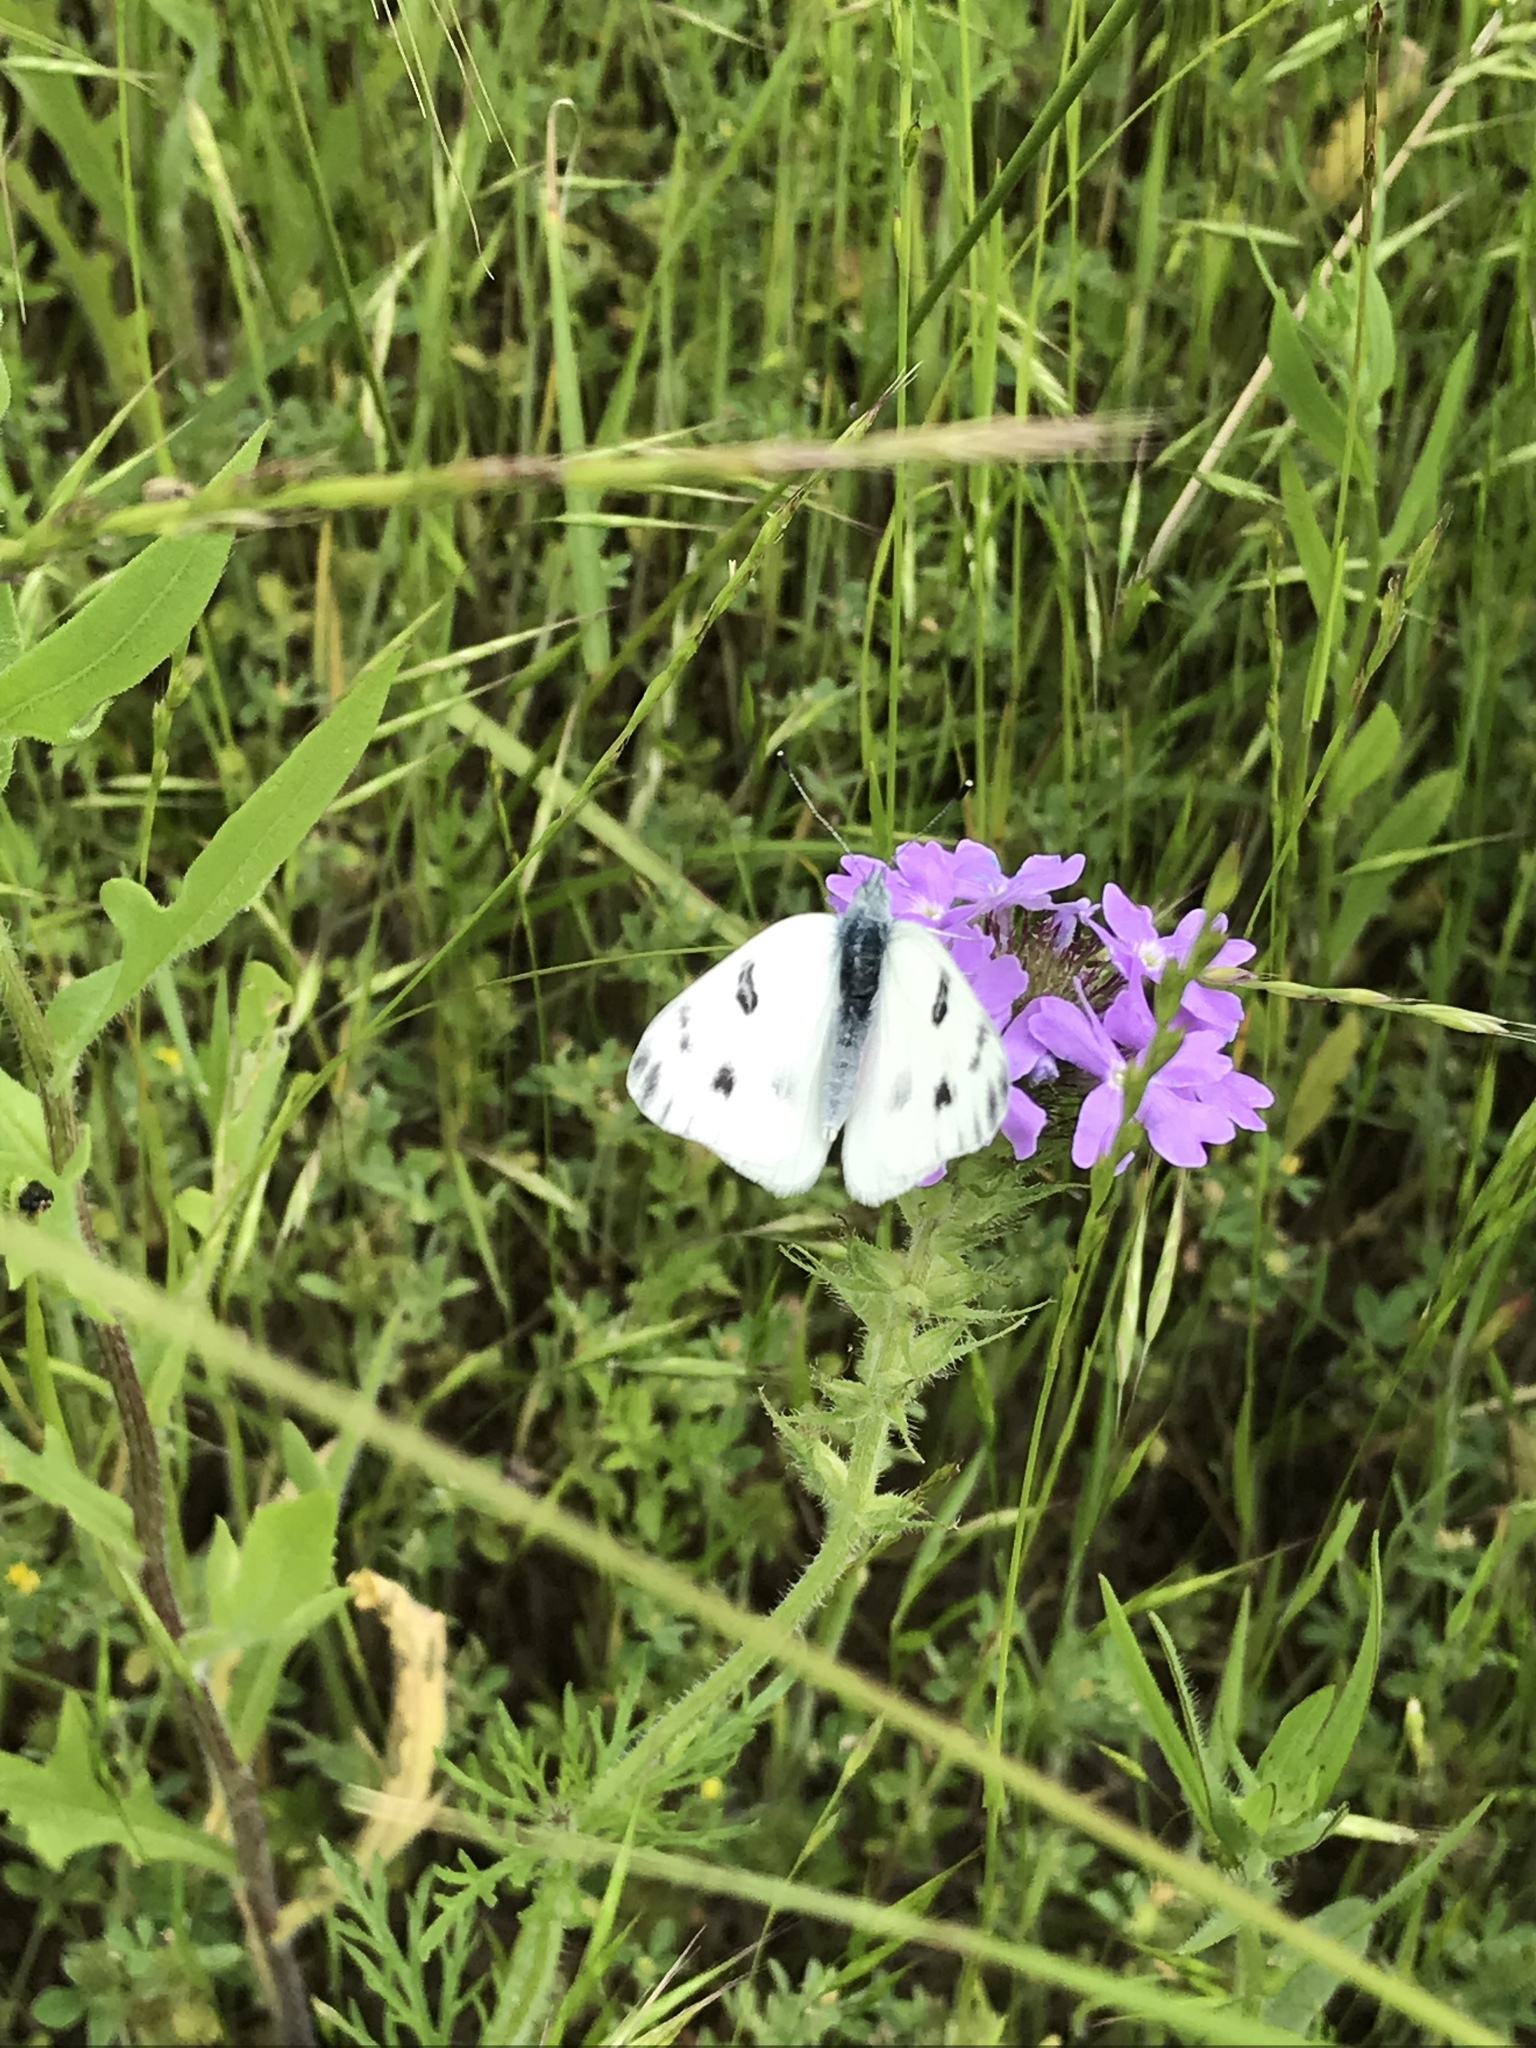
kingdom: Animalia
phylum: Arthropoda
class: Insecta
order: Lepidoptera
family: Pieridae
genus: Pontia
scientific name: Pontia protodice
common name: Checkered white
